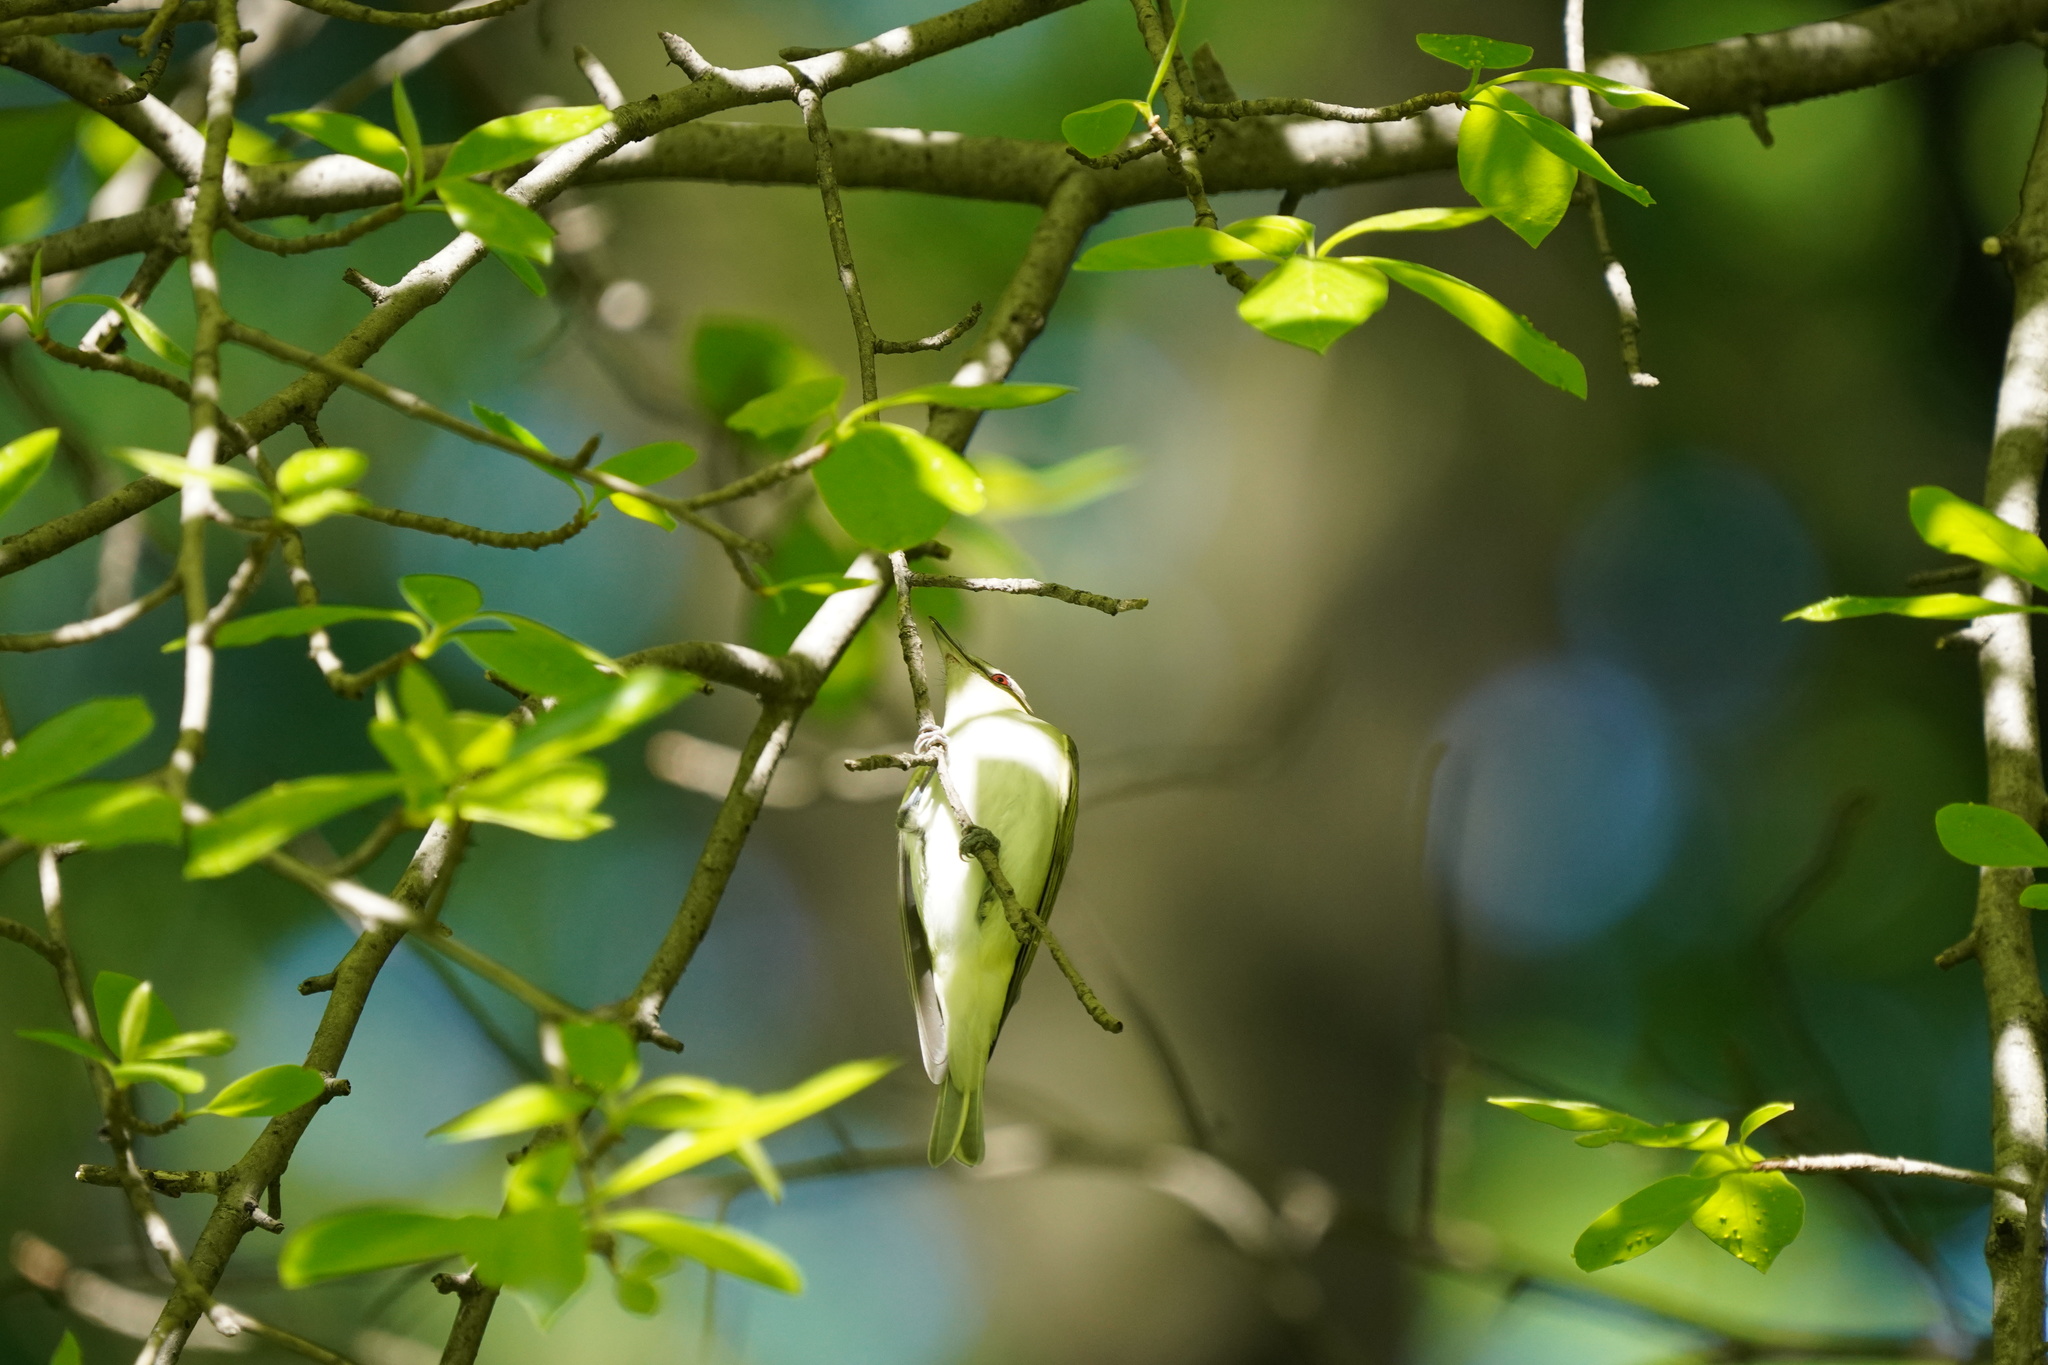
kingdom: Animalia
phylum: Chordata
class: Aves
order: Passeriformes
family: Vireonidae
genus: Vireo
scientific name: Vireo olivaceus
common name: Red-eyed vireo
